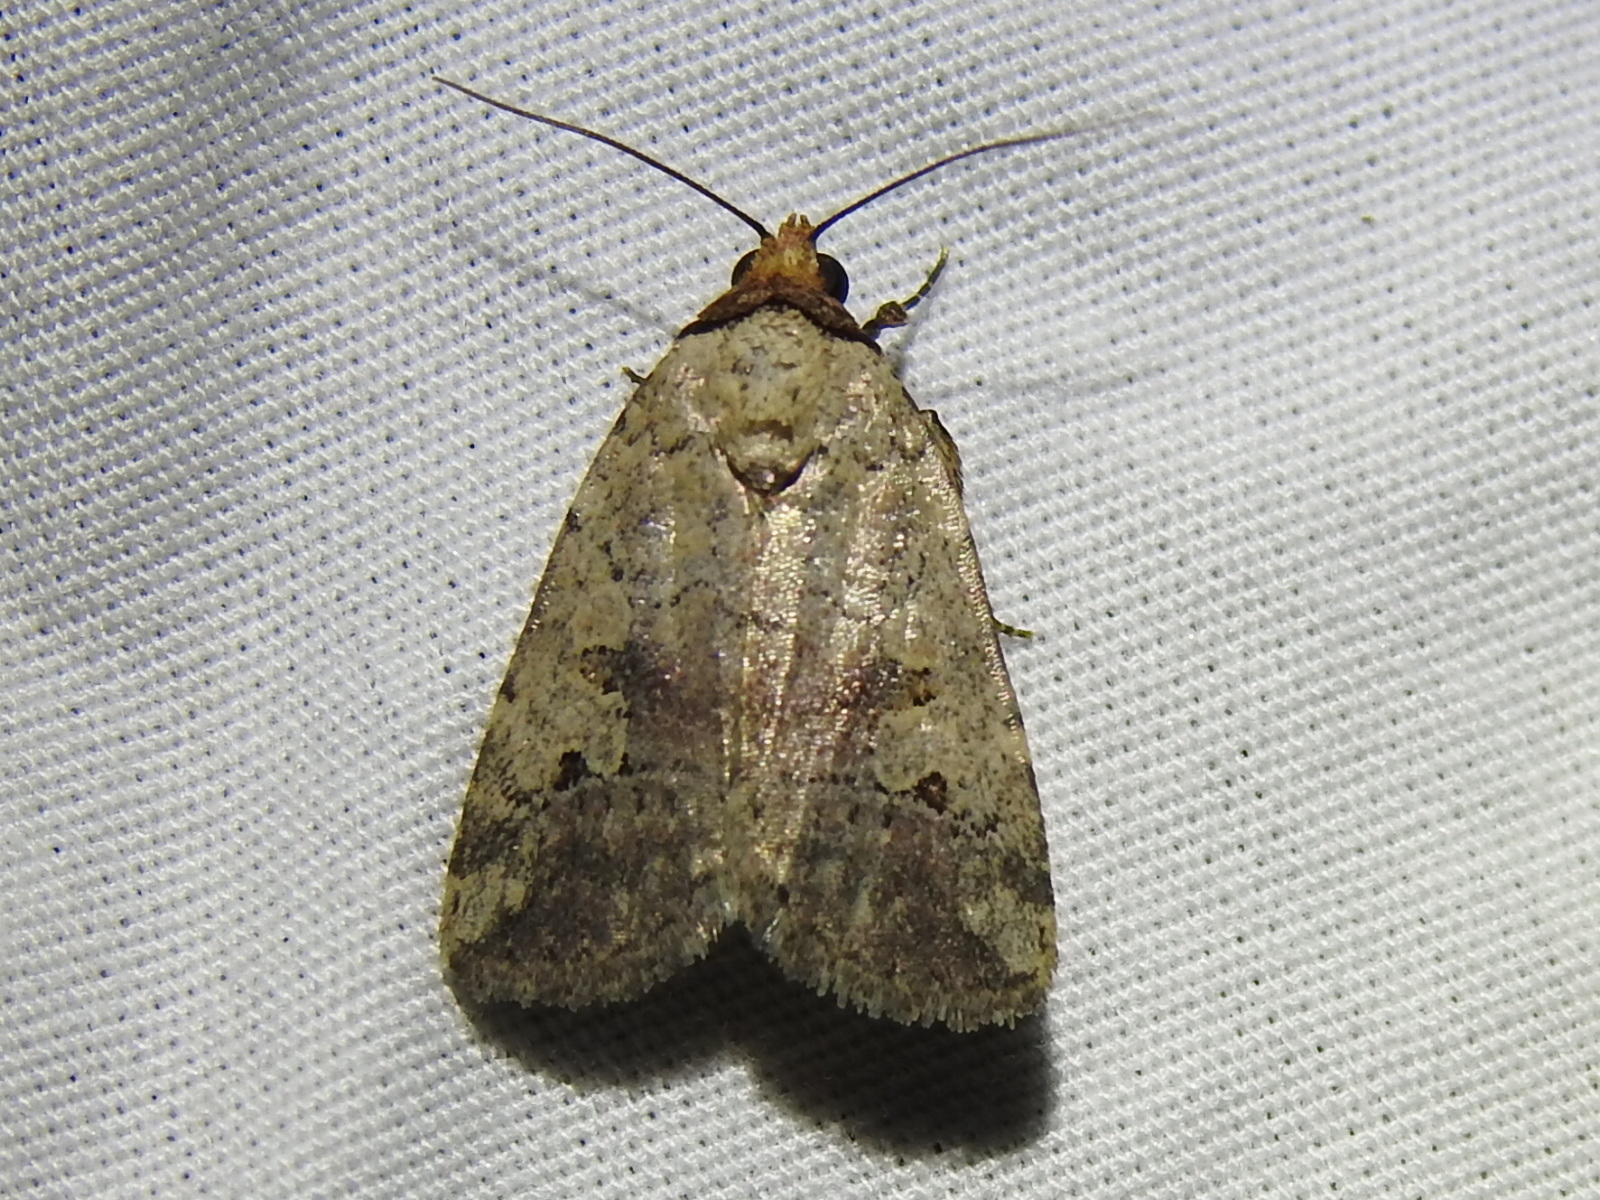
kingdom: Animalia
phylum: Arthropoda
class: Insecta
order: Lepidoptera
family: Noctuidae
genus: Elaphria
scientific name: Elaphria festivoides
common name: Festive midget
